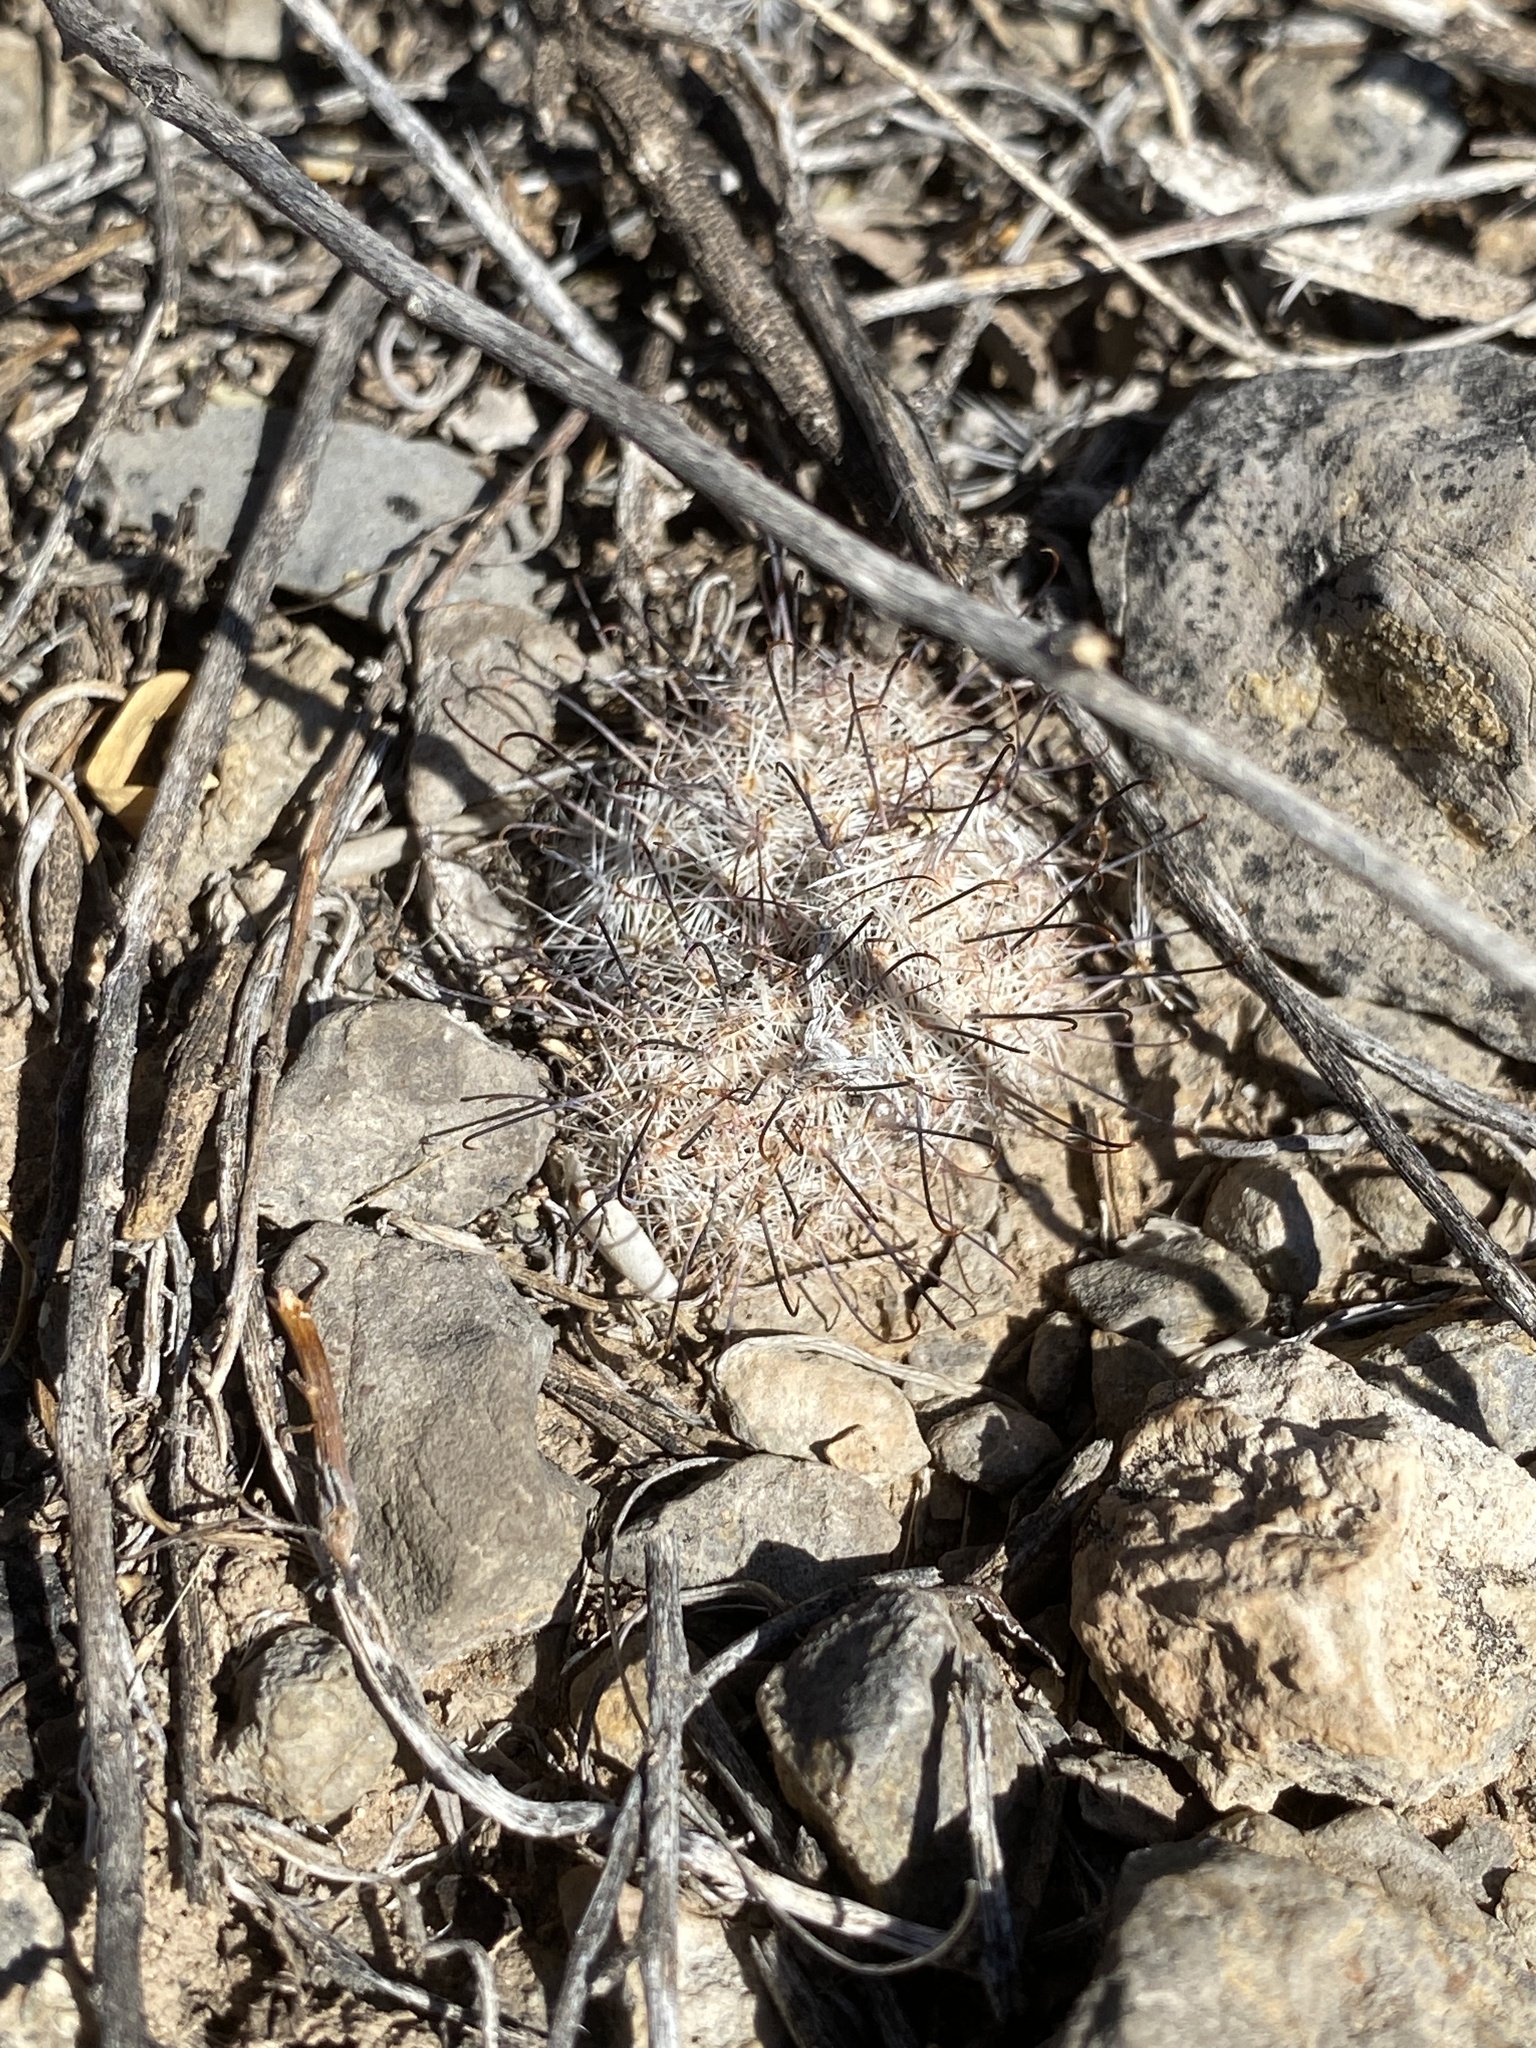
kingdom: Plantae
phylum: Tracheophyta
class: Magnoliopsida
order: Caryophyllales
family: Cactaceae
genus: Cochemiea
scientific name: Cochemiea grahamii
